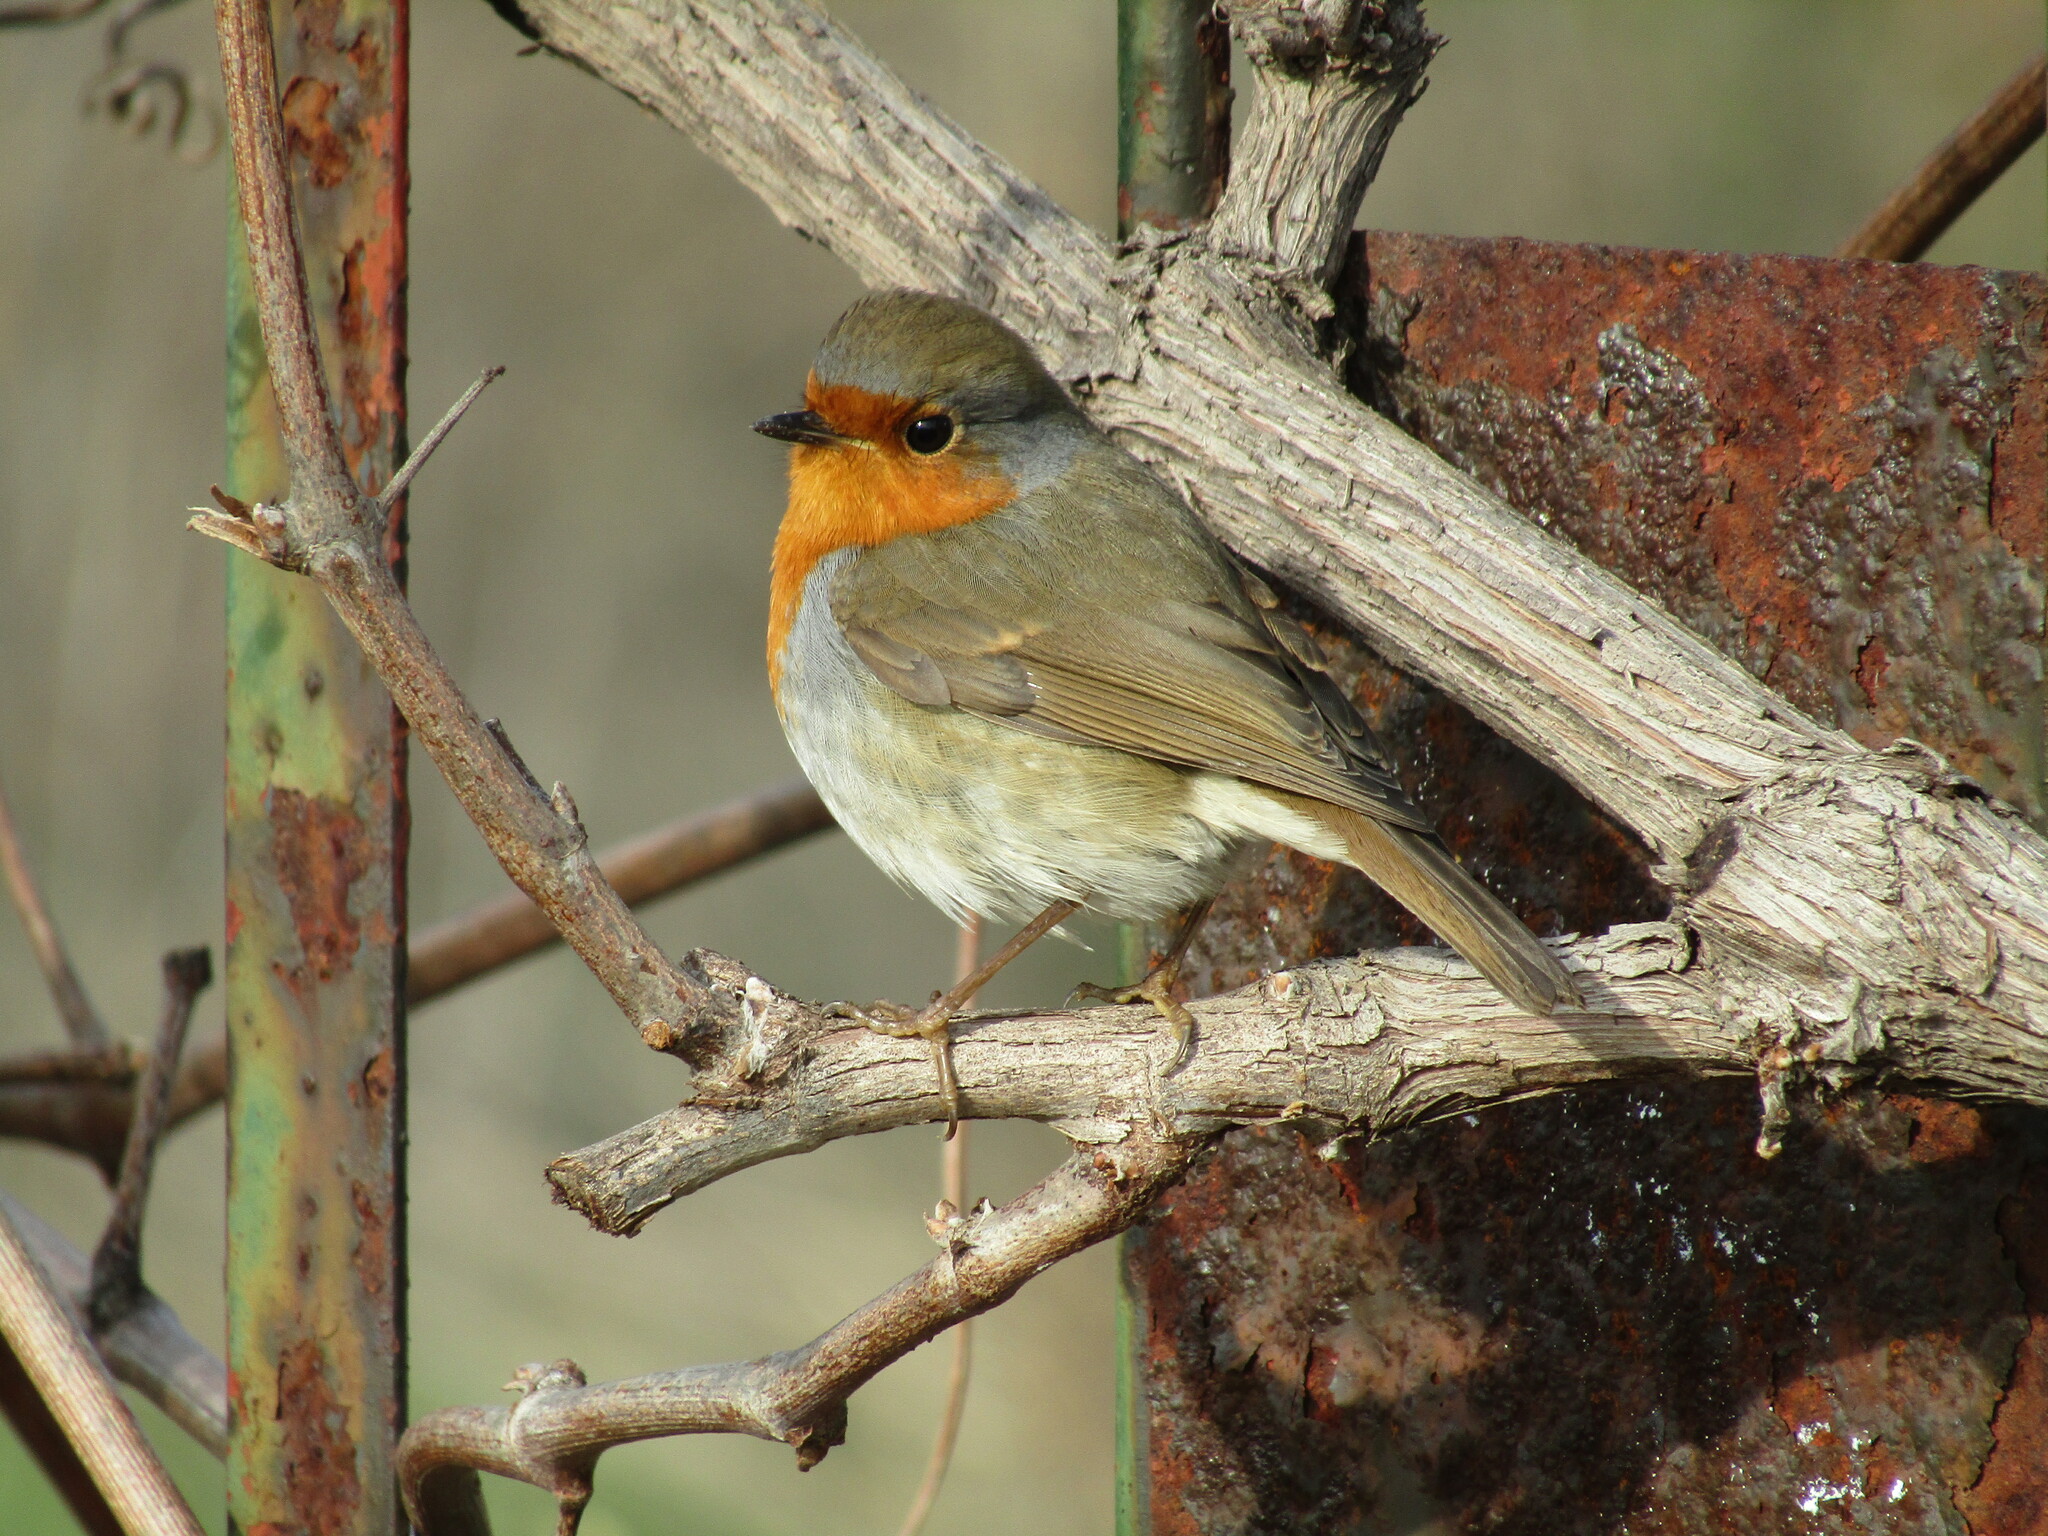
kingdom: Animalia
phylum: Chordata
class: Aves
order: Passeriformes
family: Muscicapidae
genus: Erithacus
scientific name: Erithacus rubecula
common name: European robin
